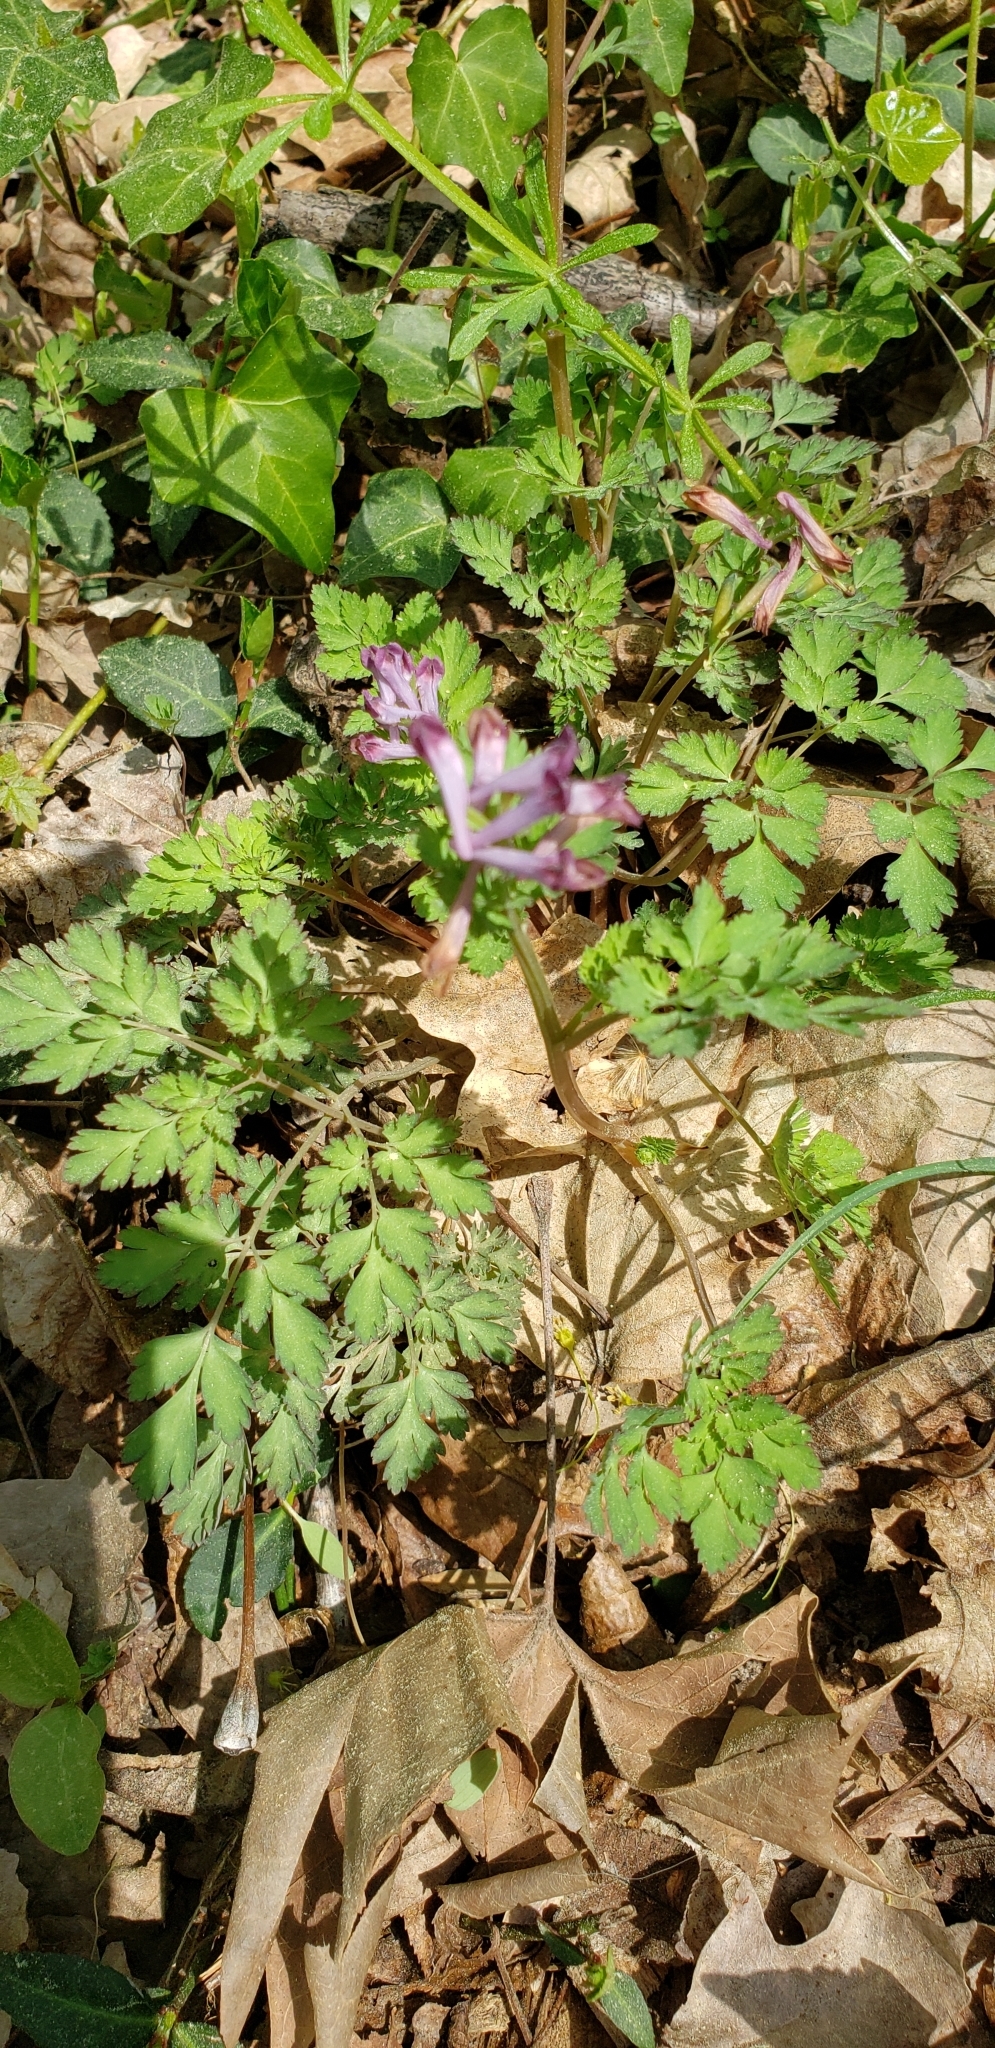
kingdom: Plantae
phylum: Tracheophyta
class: Magnoliopsida
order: Ranunculales
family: Papaveraceae
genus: Corydalis
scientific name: Corydalis incisa
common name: Incised fumewort
